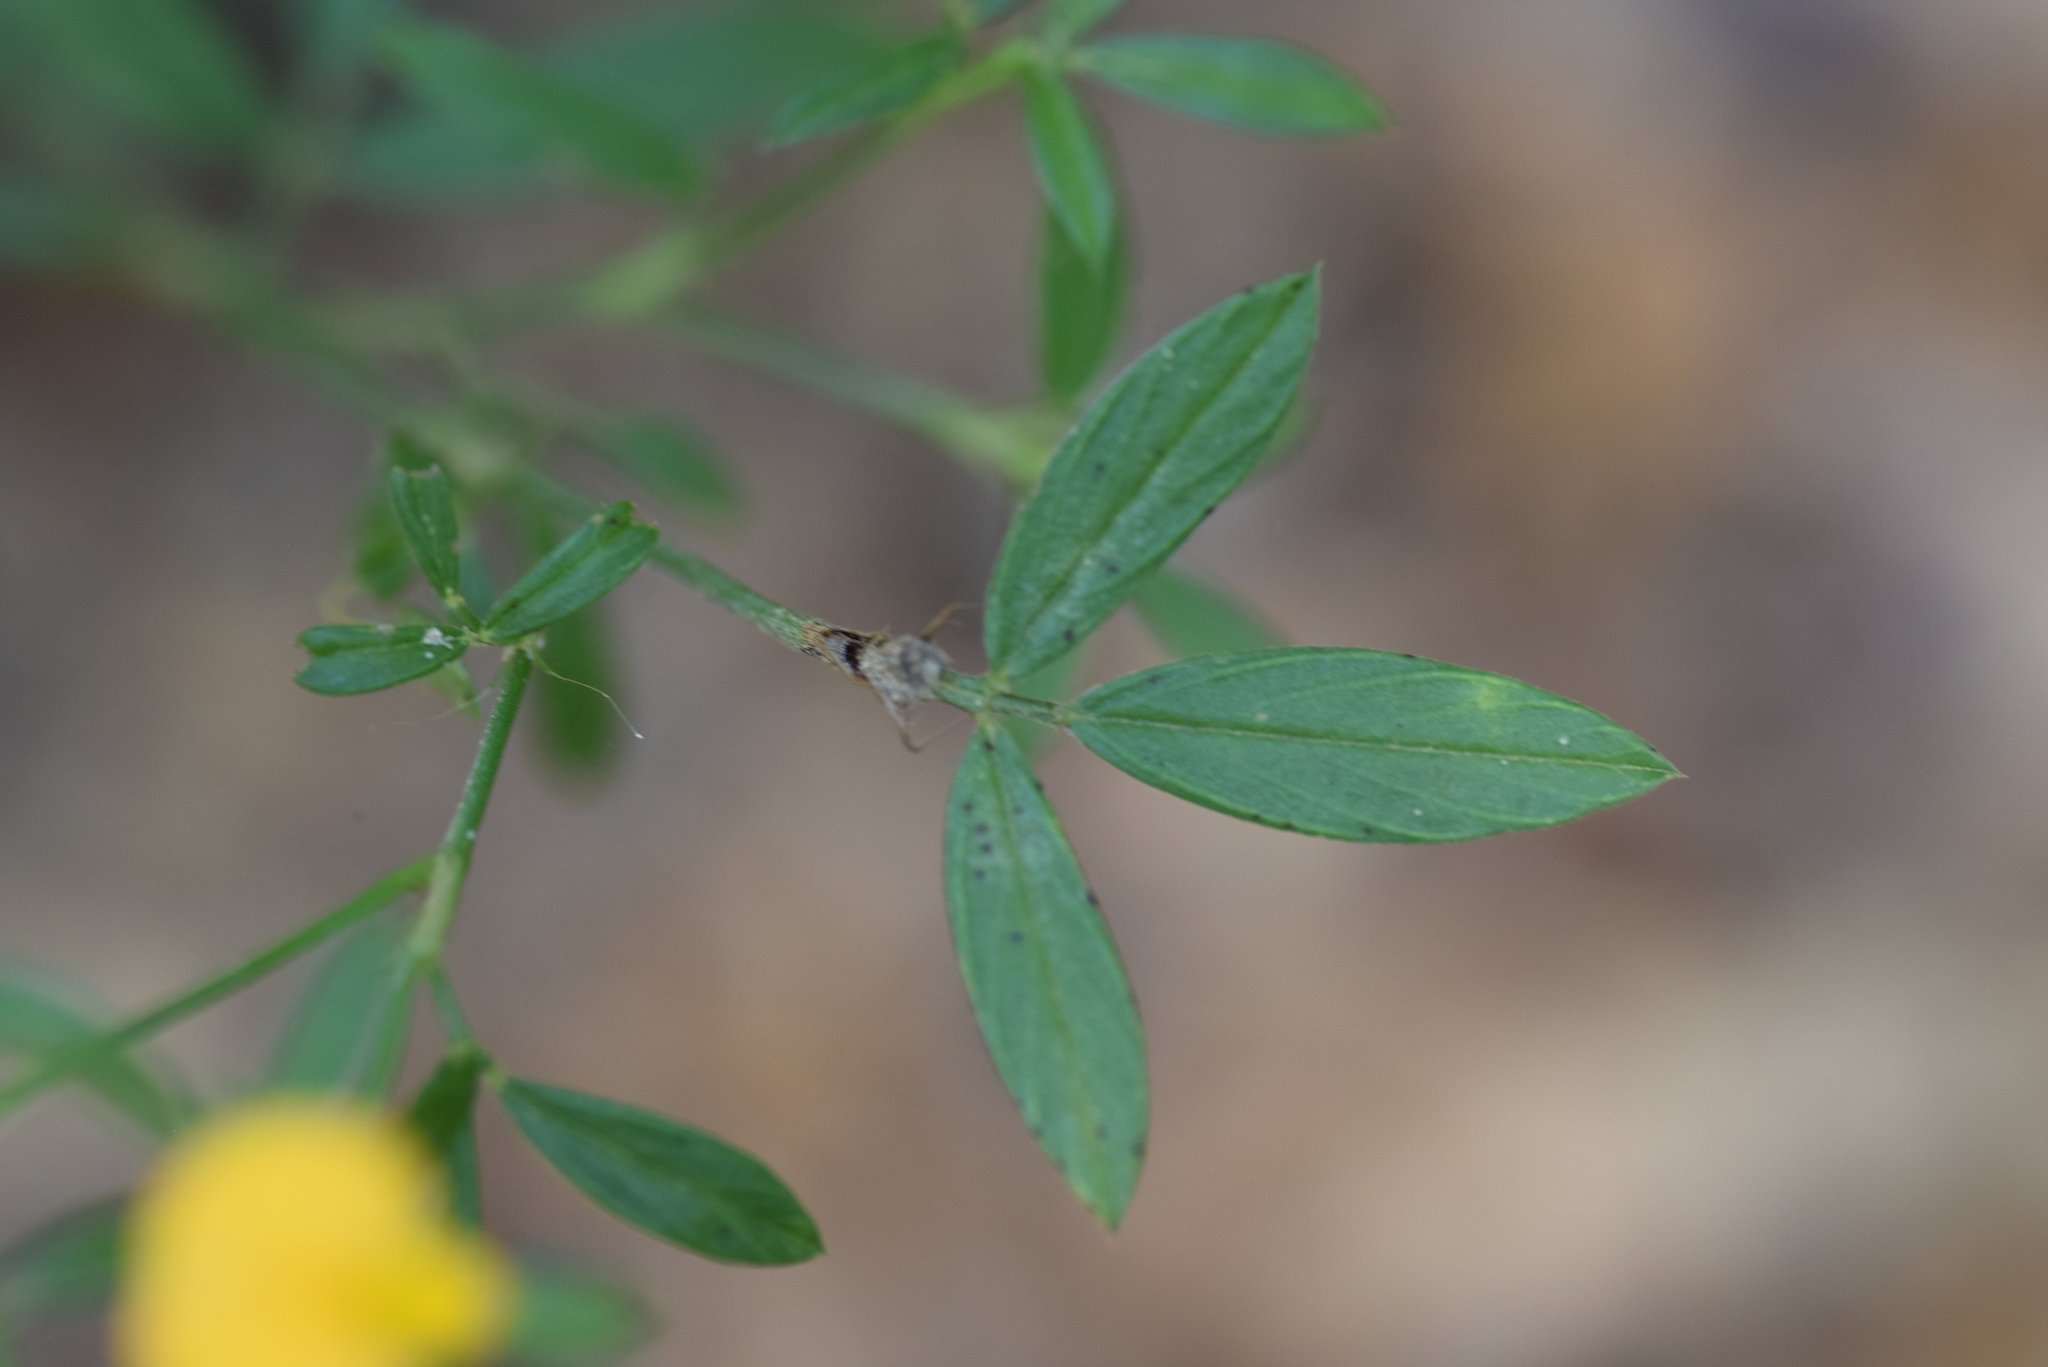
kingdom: Plantae
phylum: Tracheophyta
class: Magnoliopsida
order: Fabales
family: Fabaceae
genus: Stylosanthes
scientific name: Stylosanthes biflora
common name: Two-flower pencil-flower
